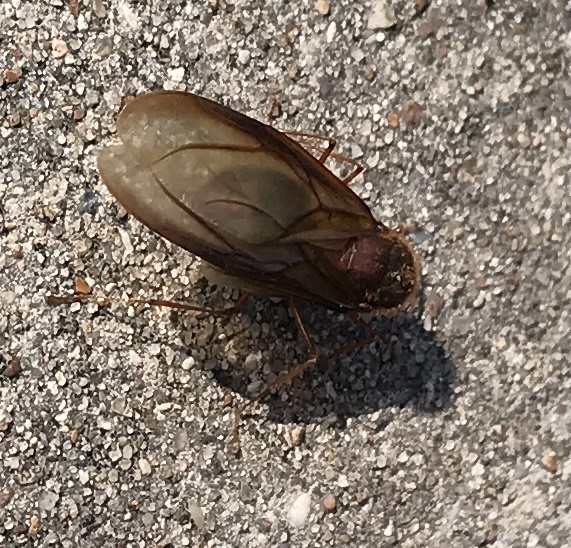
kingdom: Animalia
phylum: Arthropoda
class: Insecta
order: Hymenoptera
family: Formicidae
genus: Atta
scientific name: Atta texana
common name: Texas leafcutting ant
